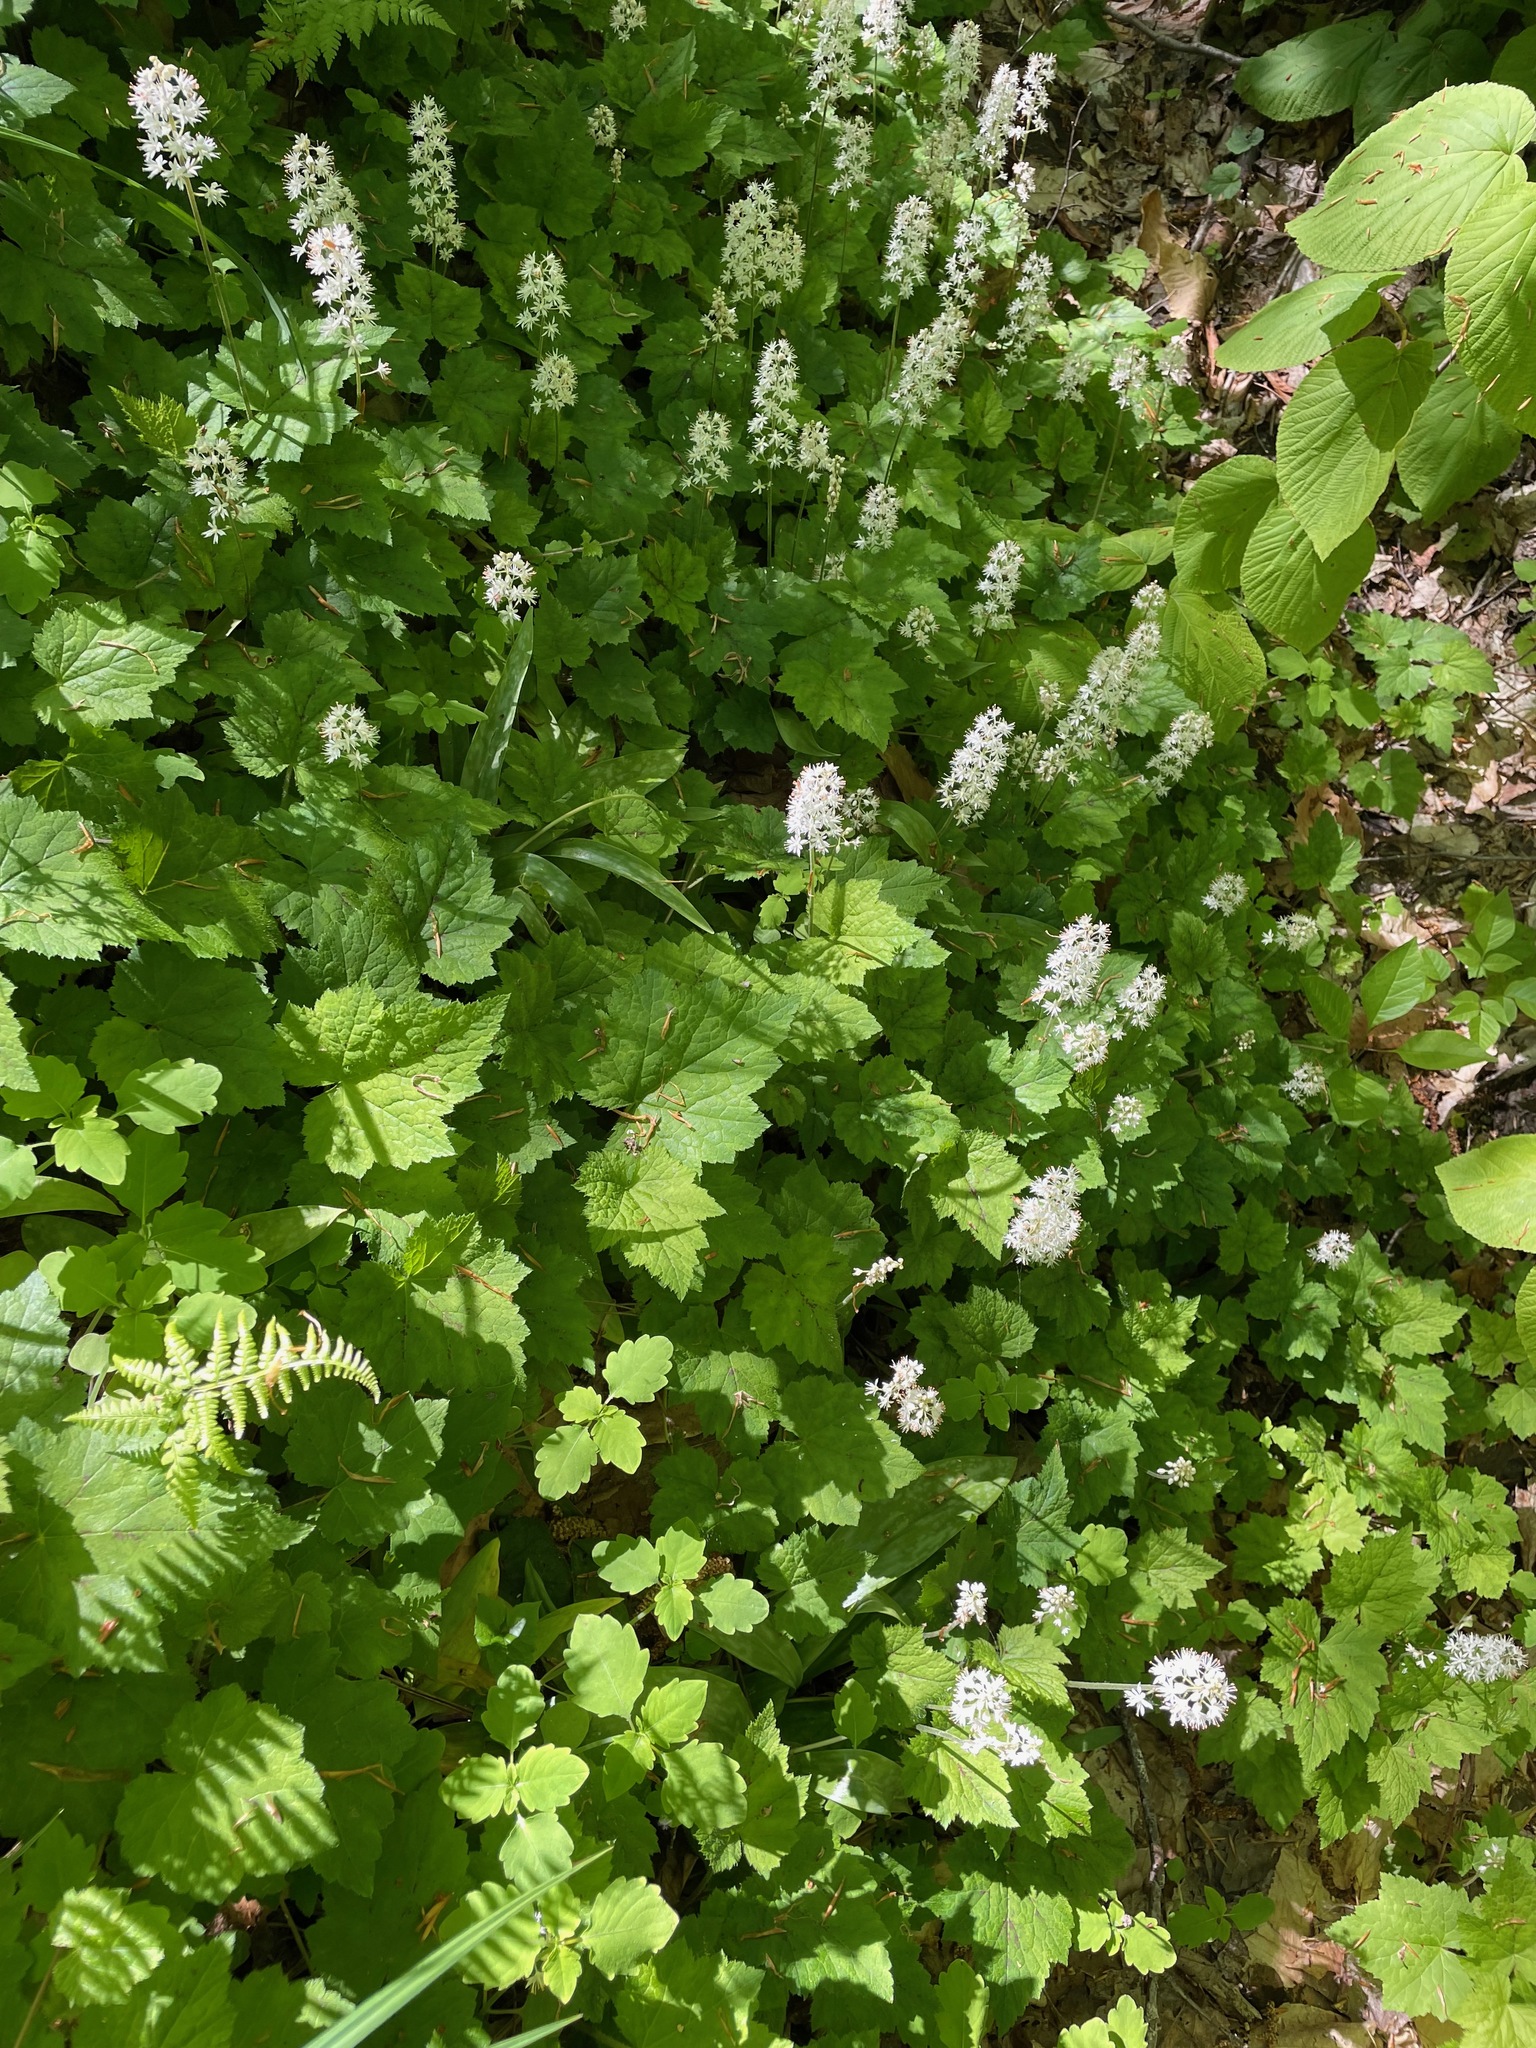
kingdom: Plantae
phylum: Tracheophyta
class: Magnoliopsida
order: Saxifragales
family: Saxifragaceae
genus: Tiarella
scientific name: Tiarella stolonifera
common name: Stoloniferous foamflower
